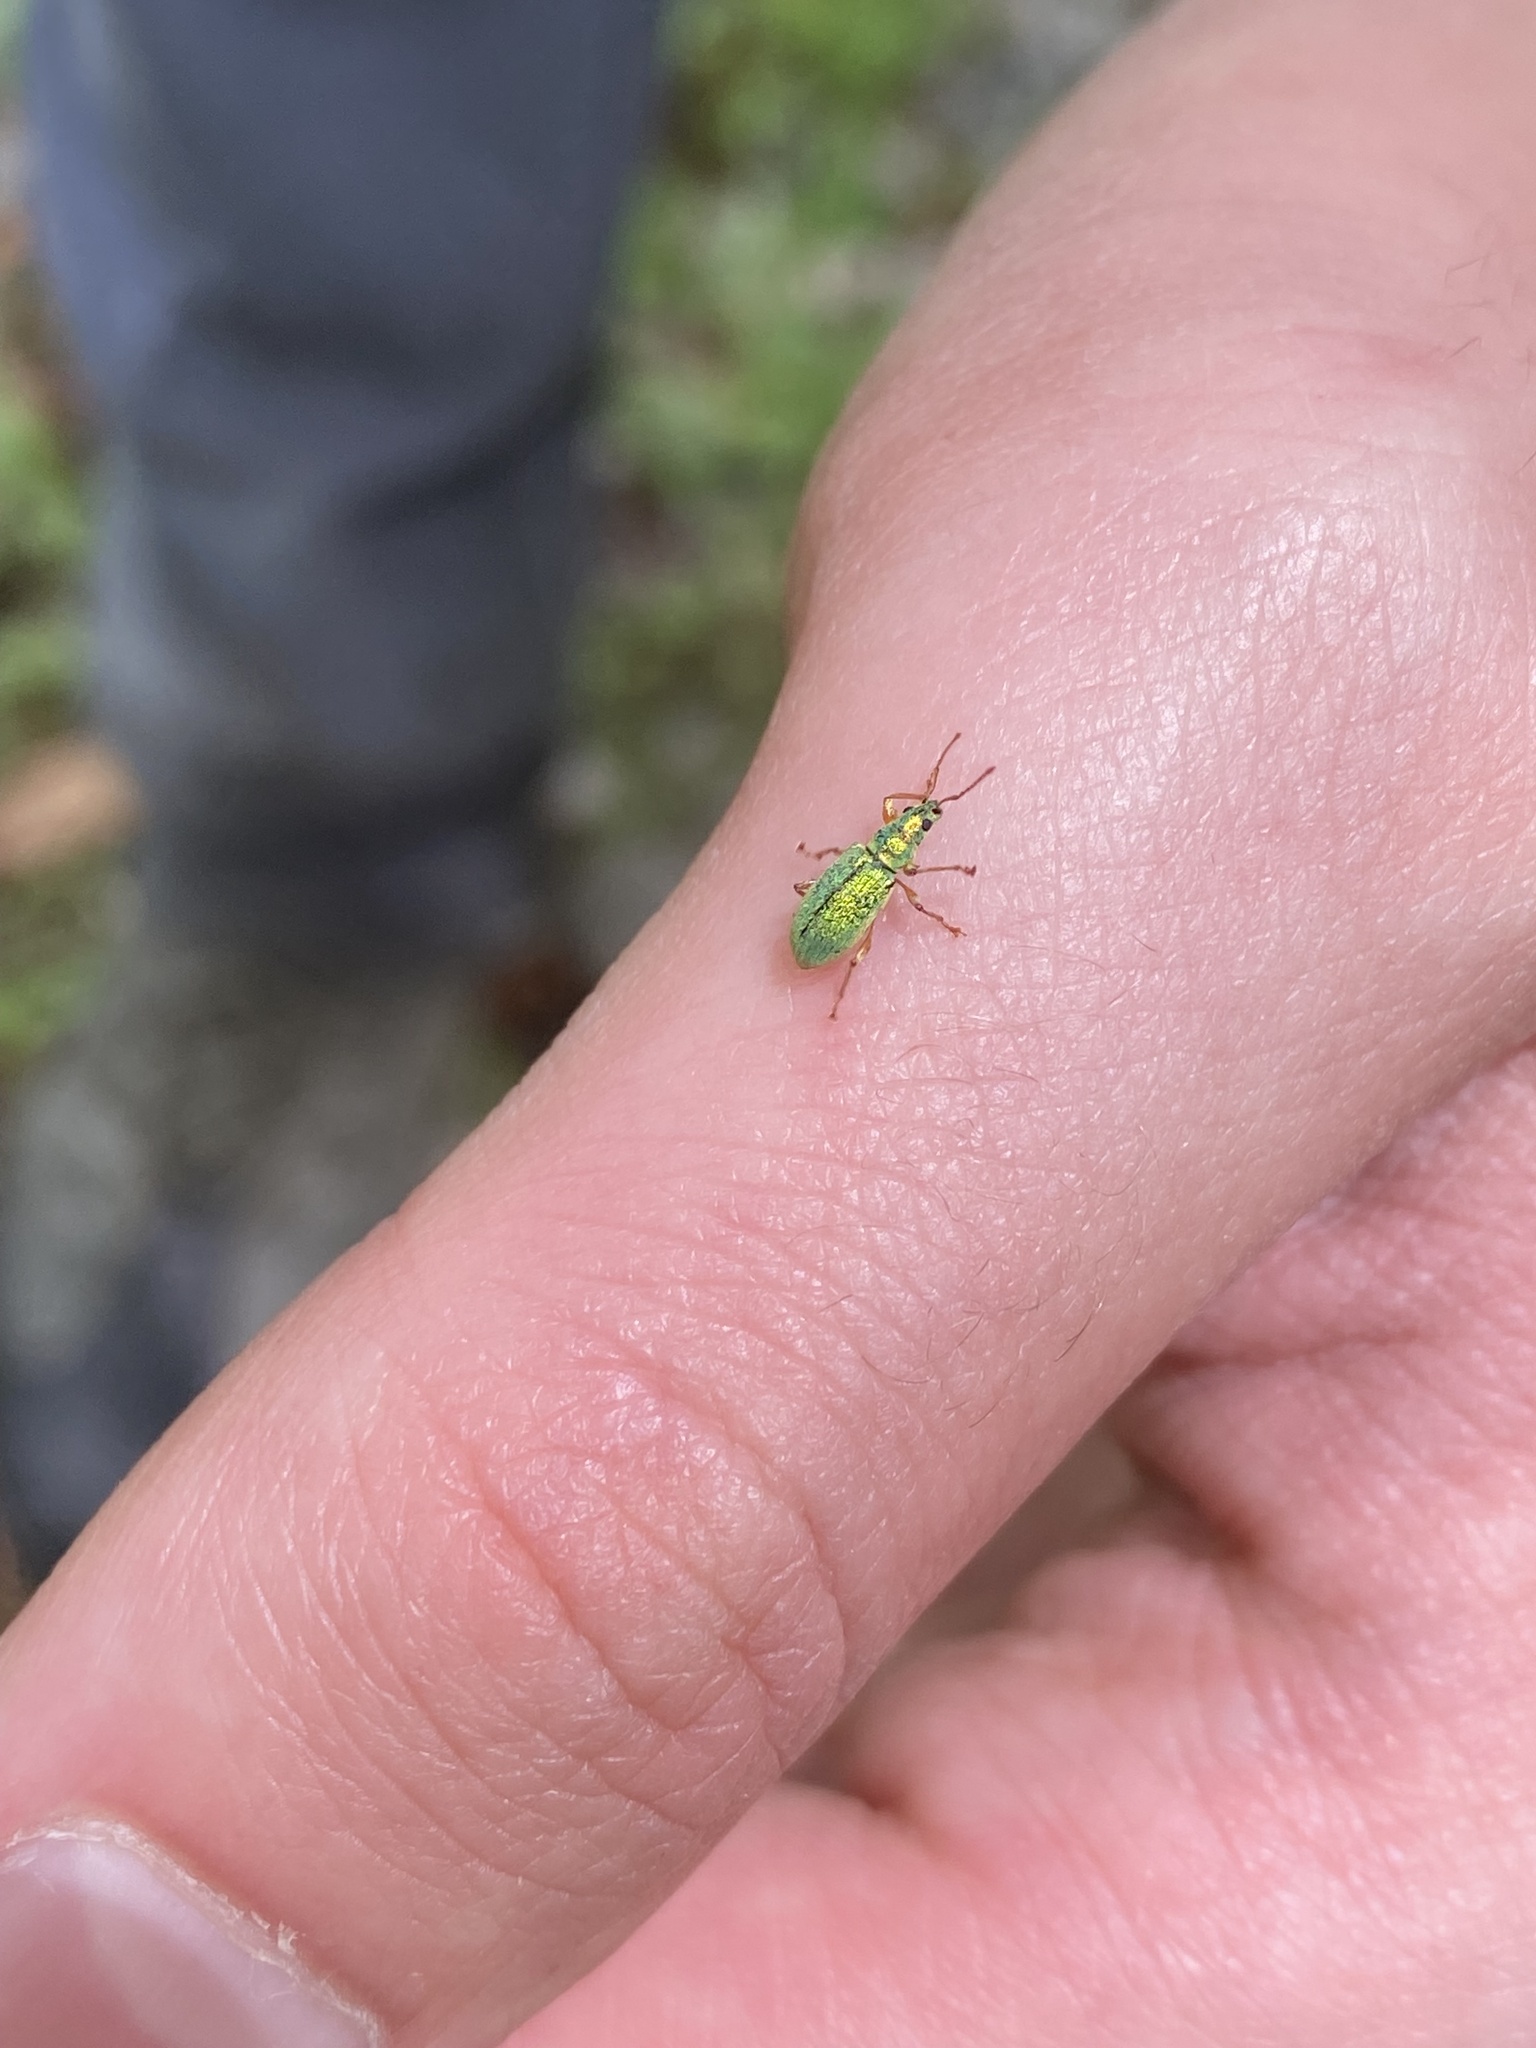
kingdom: Animalia
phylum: Arthropoda
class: Insecta
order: Coleoptera
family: Curculionidae
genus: Phyllobius
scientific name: Phyllobius argentatus
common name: Silver-green leaf weevil
